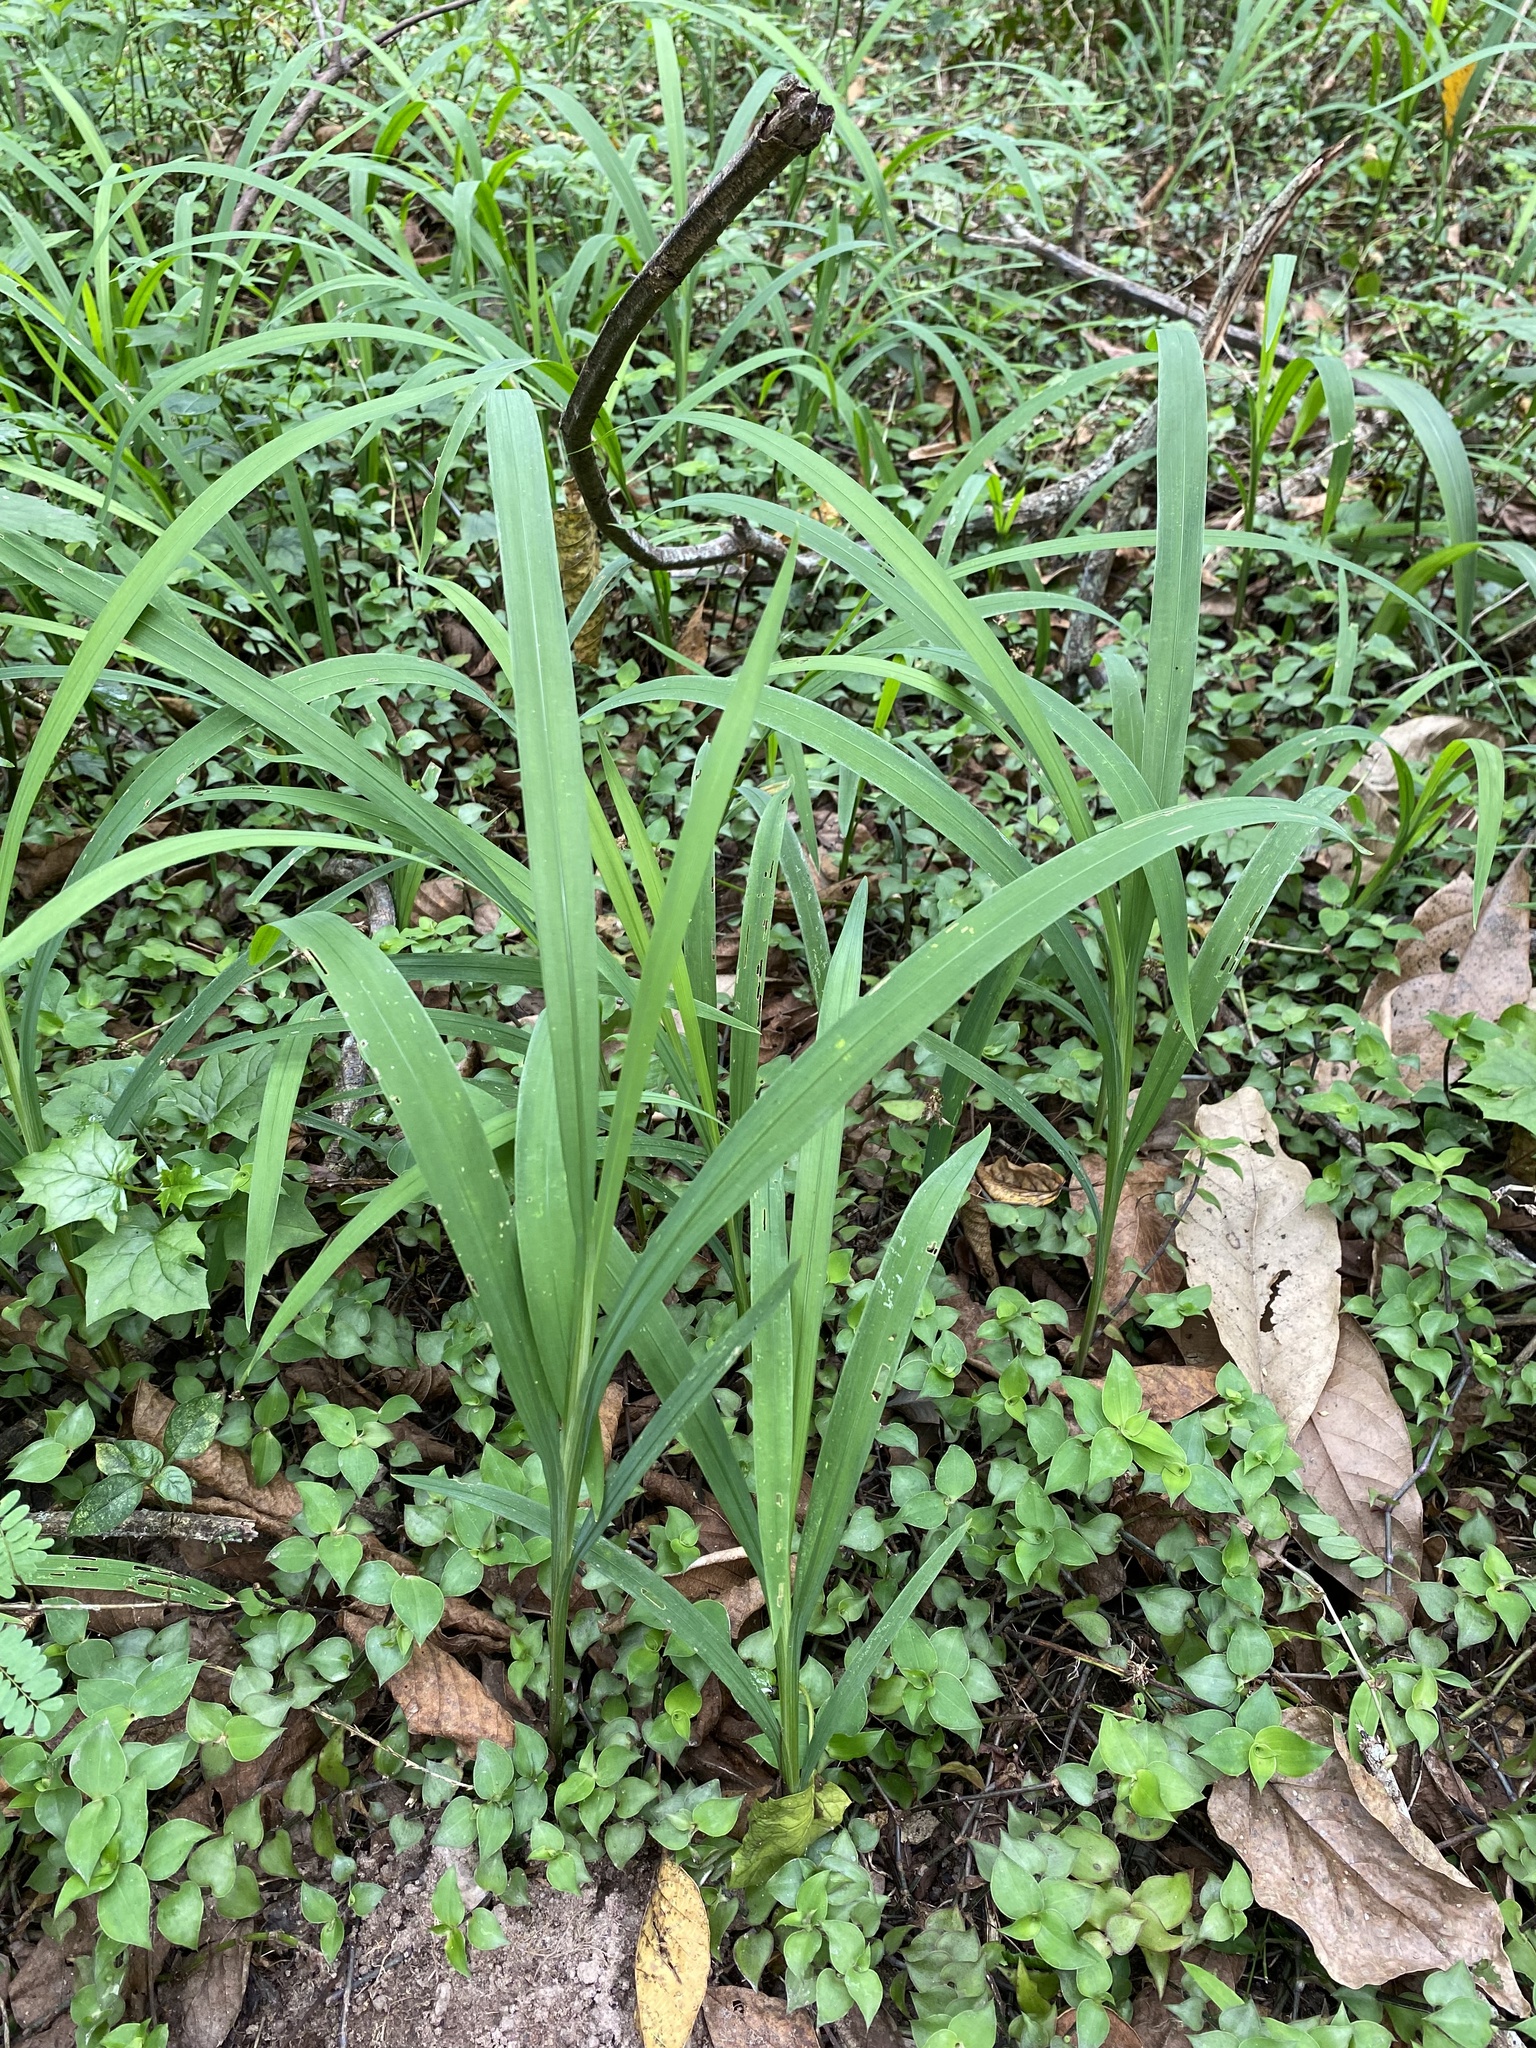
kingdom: Plantae
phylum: Tracheophyta
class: Liliopsida
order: Asparagales
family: Iridaceae
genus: Crocosmia
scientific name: Crocosmia aurea
